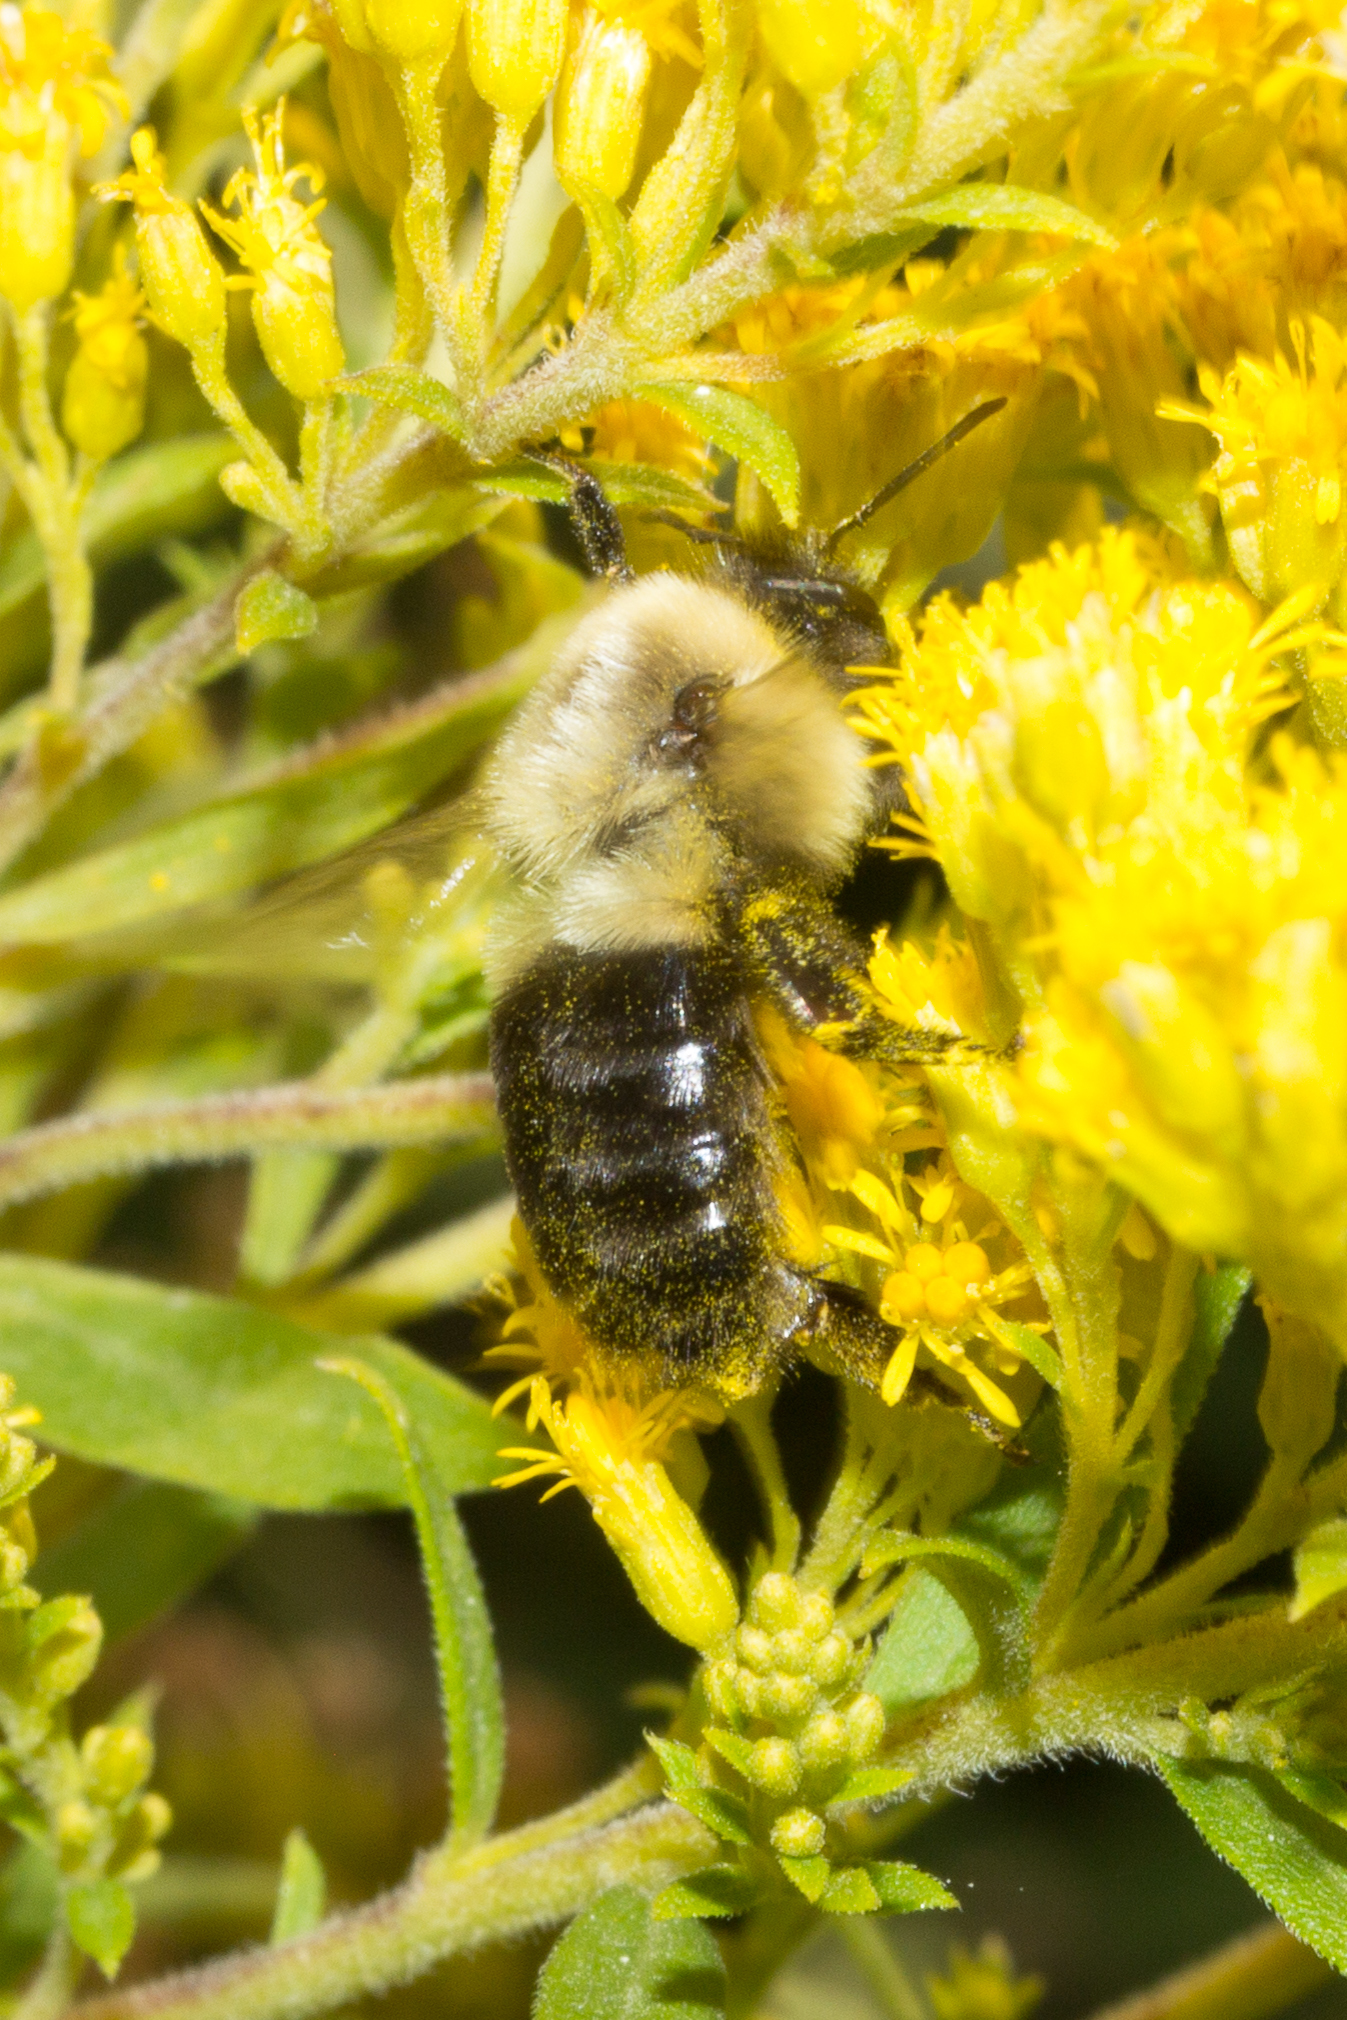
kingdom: Animalia
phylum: Arthropoda
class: Insecta
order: Hymenoptera
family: Apidae
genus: Bombus
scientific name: Bombus impatiens
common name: Common eastern bumble bee
